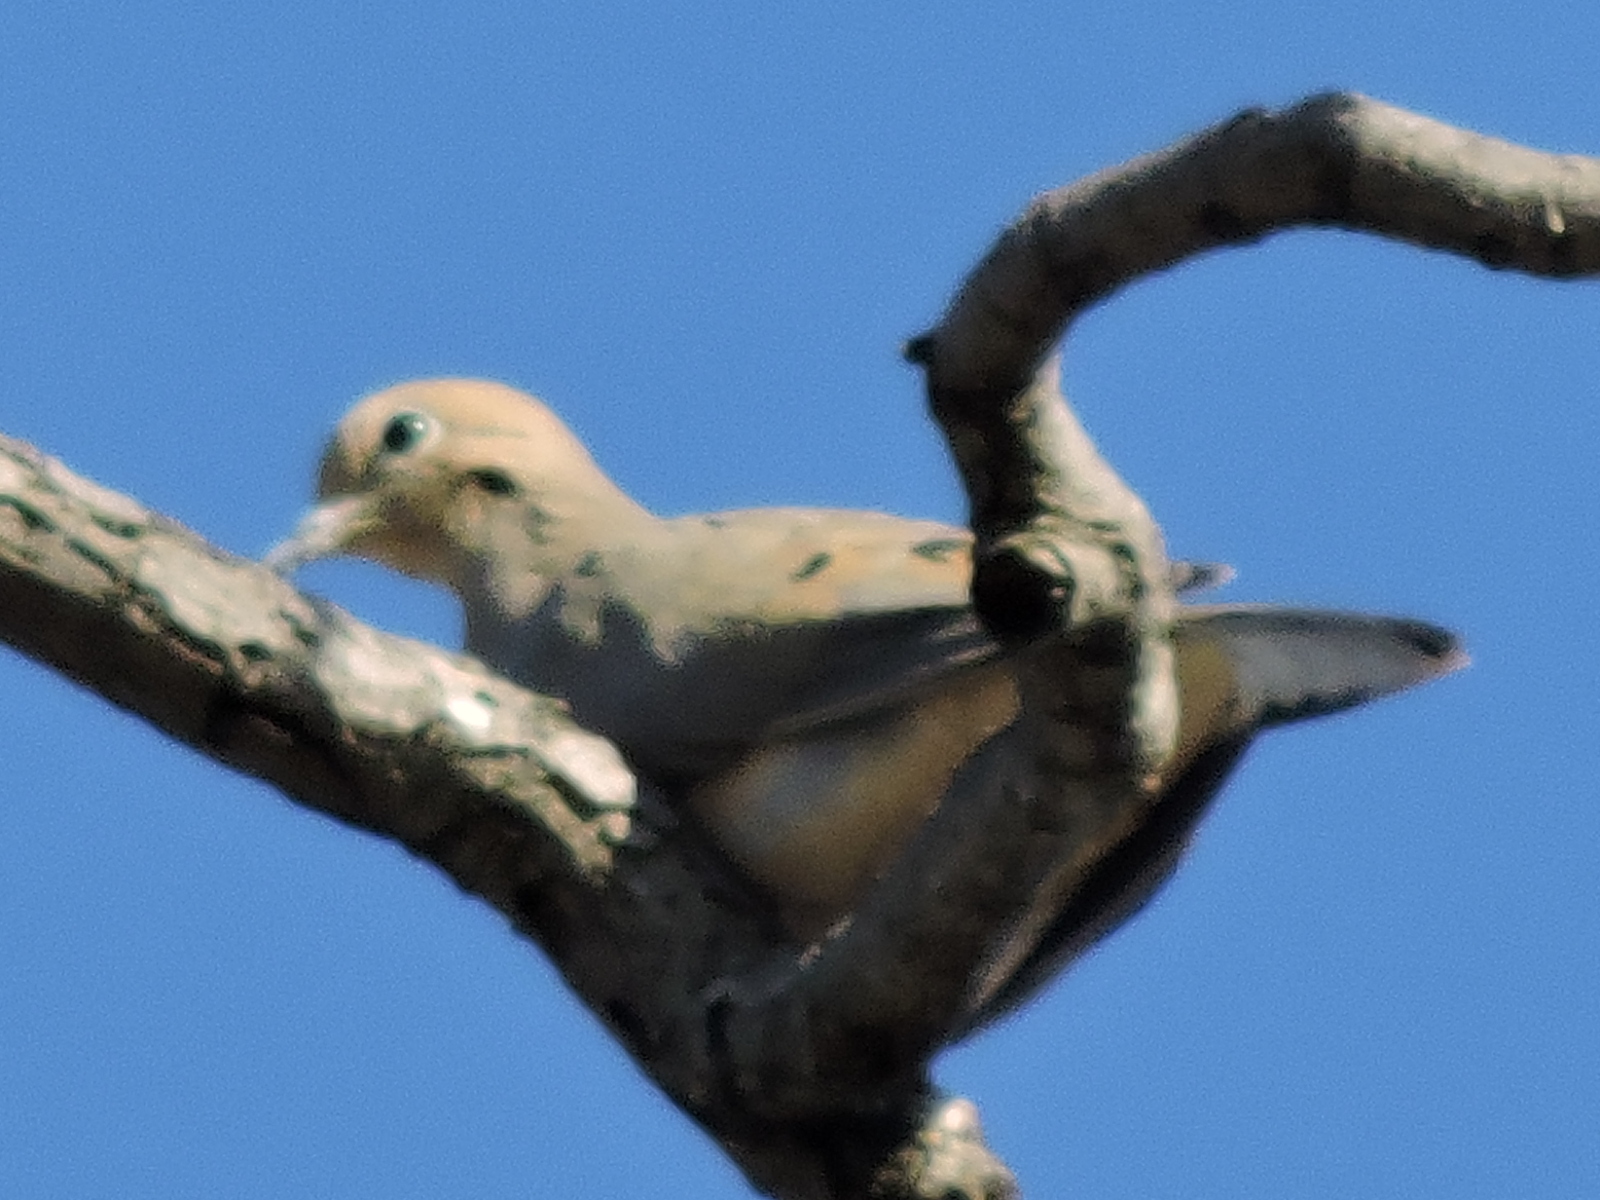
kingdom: Animalia
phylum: Chordata
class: Aves
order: Columbiformes
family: Columbidae
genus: Zenaida
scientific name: Zenaida macroura
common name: Mourning dove
